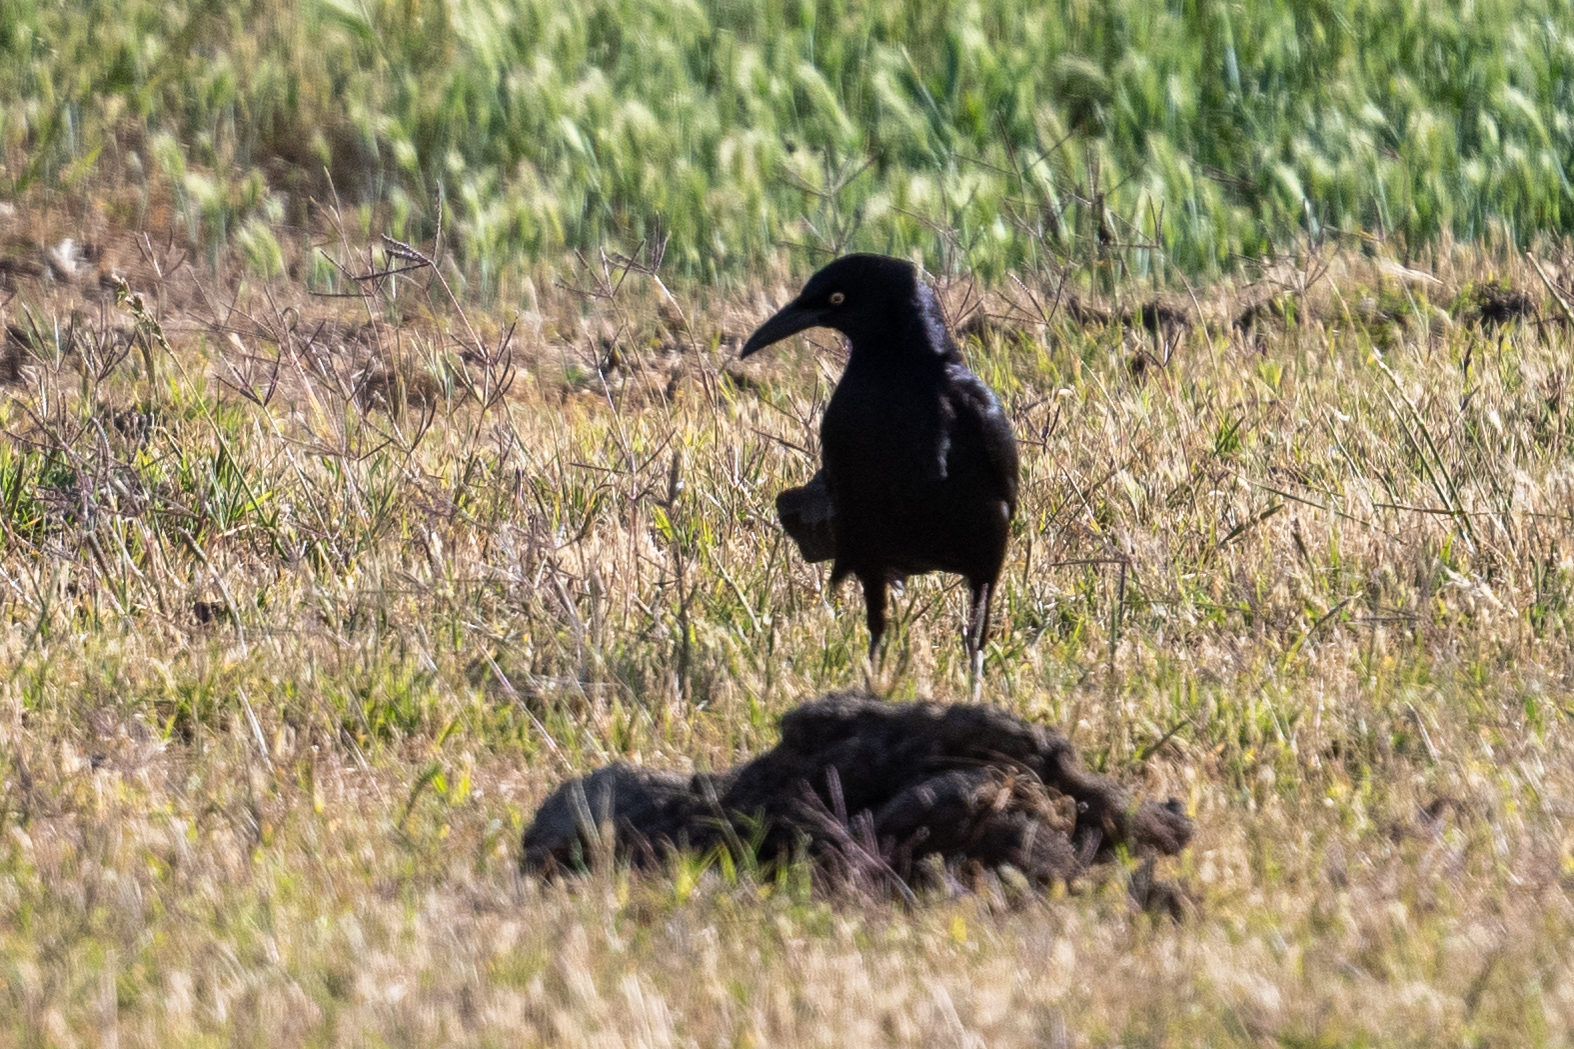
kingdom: Animalia
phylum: Chordata
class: Aves
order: Passeriformes
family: Icteridae
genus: Quiscalus
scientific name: Quiscalus mexicanus
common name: Great-tailed grackle
